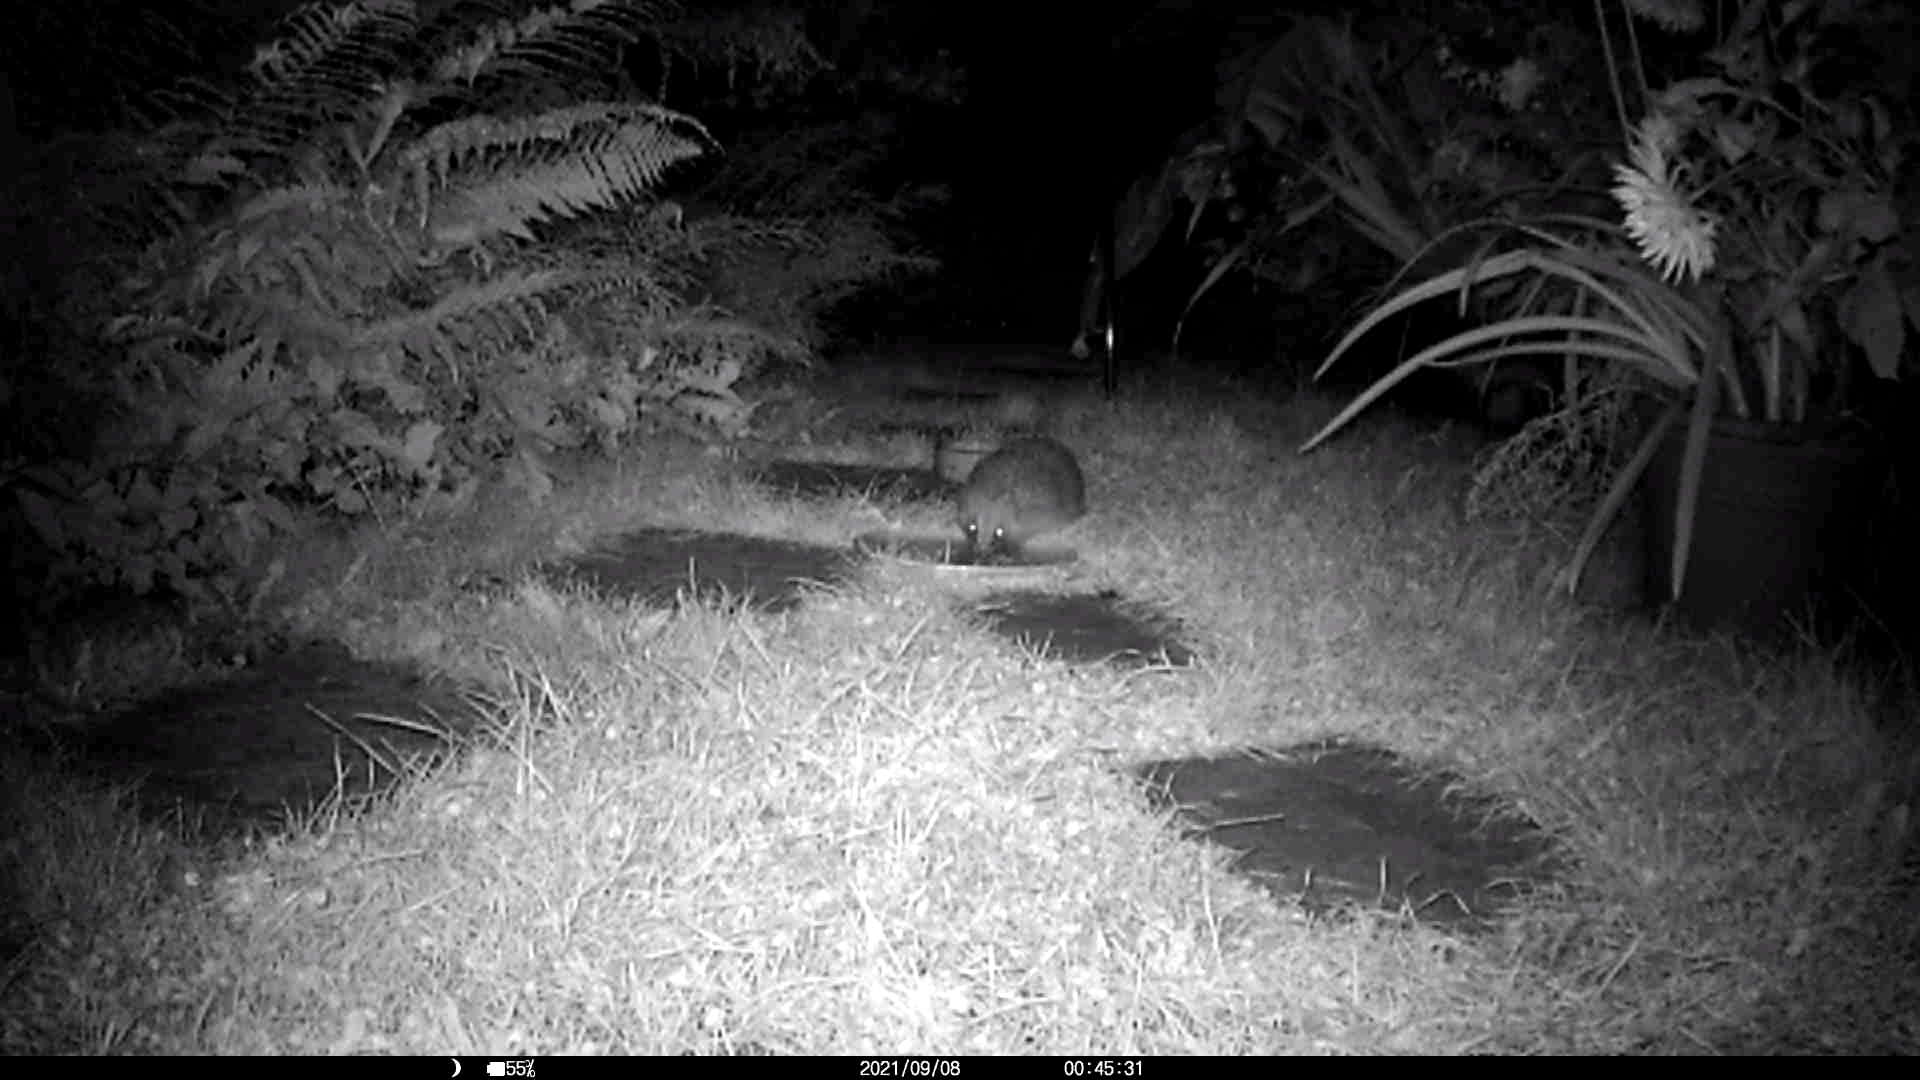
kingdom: Animalia
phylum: Chordata
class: Mammalia
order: Erinaceomorpha
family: Erinaceidae
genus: Erinaceus
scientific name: Erinaceus europaeus
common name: West european hedgehog
